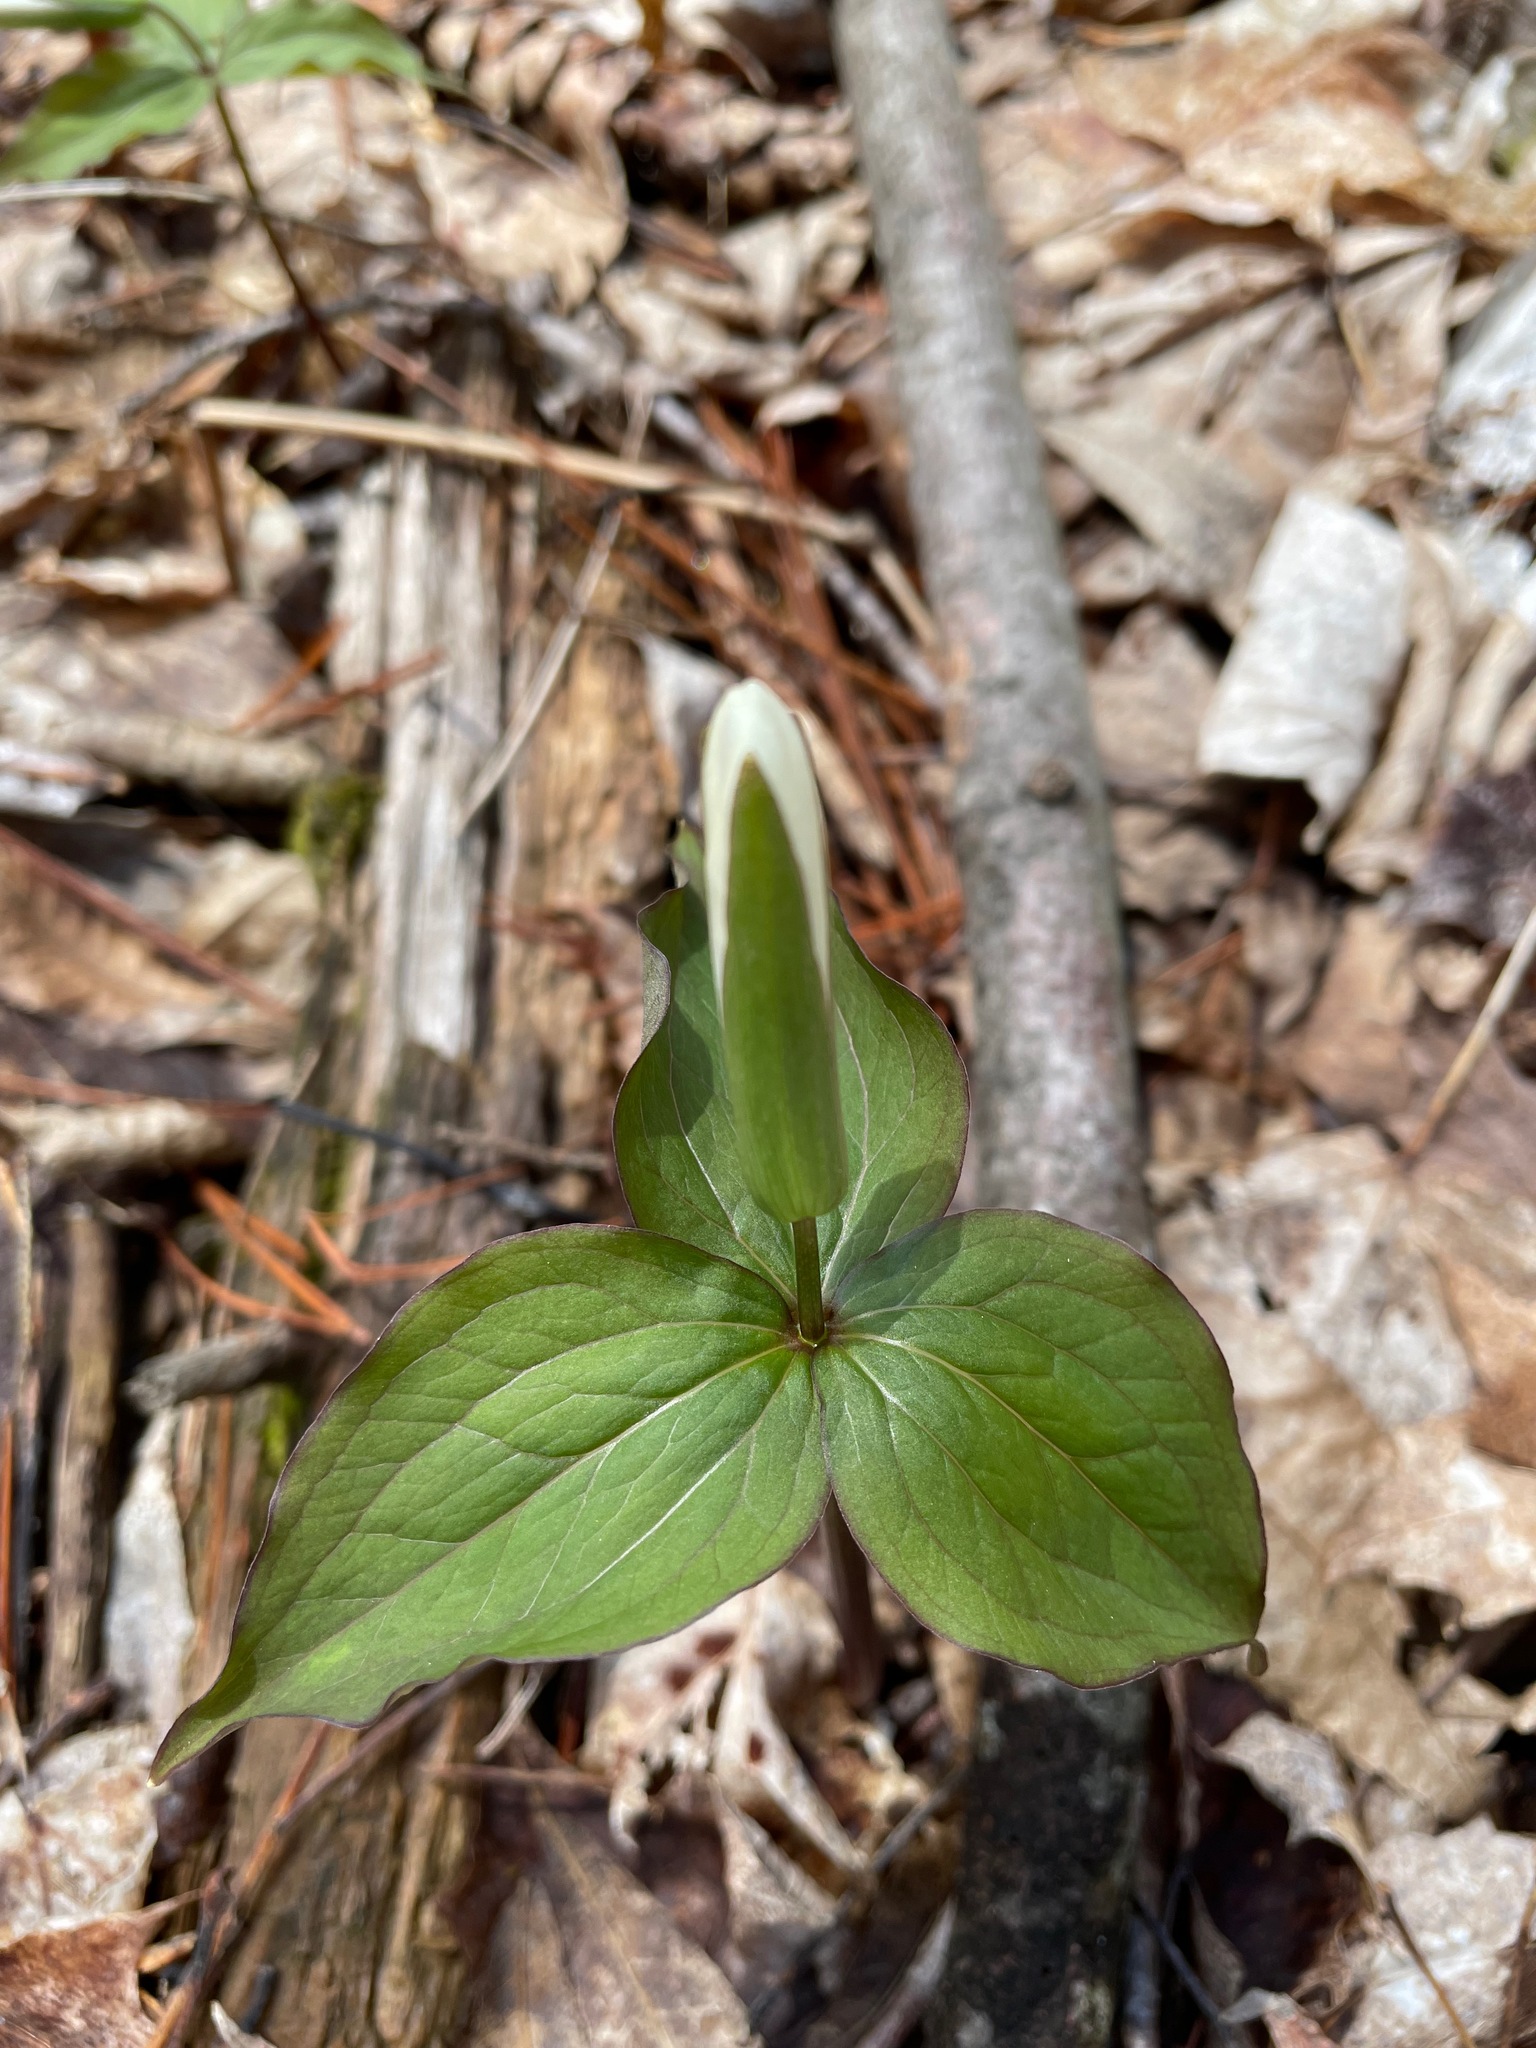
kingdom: Plantae
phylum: Tracheophyta
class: Liliopsida
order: Liliales
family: Melanthiaceae
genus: Trillium
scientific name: Trillium grandiflorum
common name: Great white trillium
